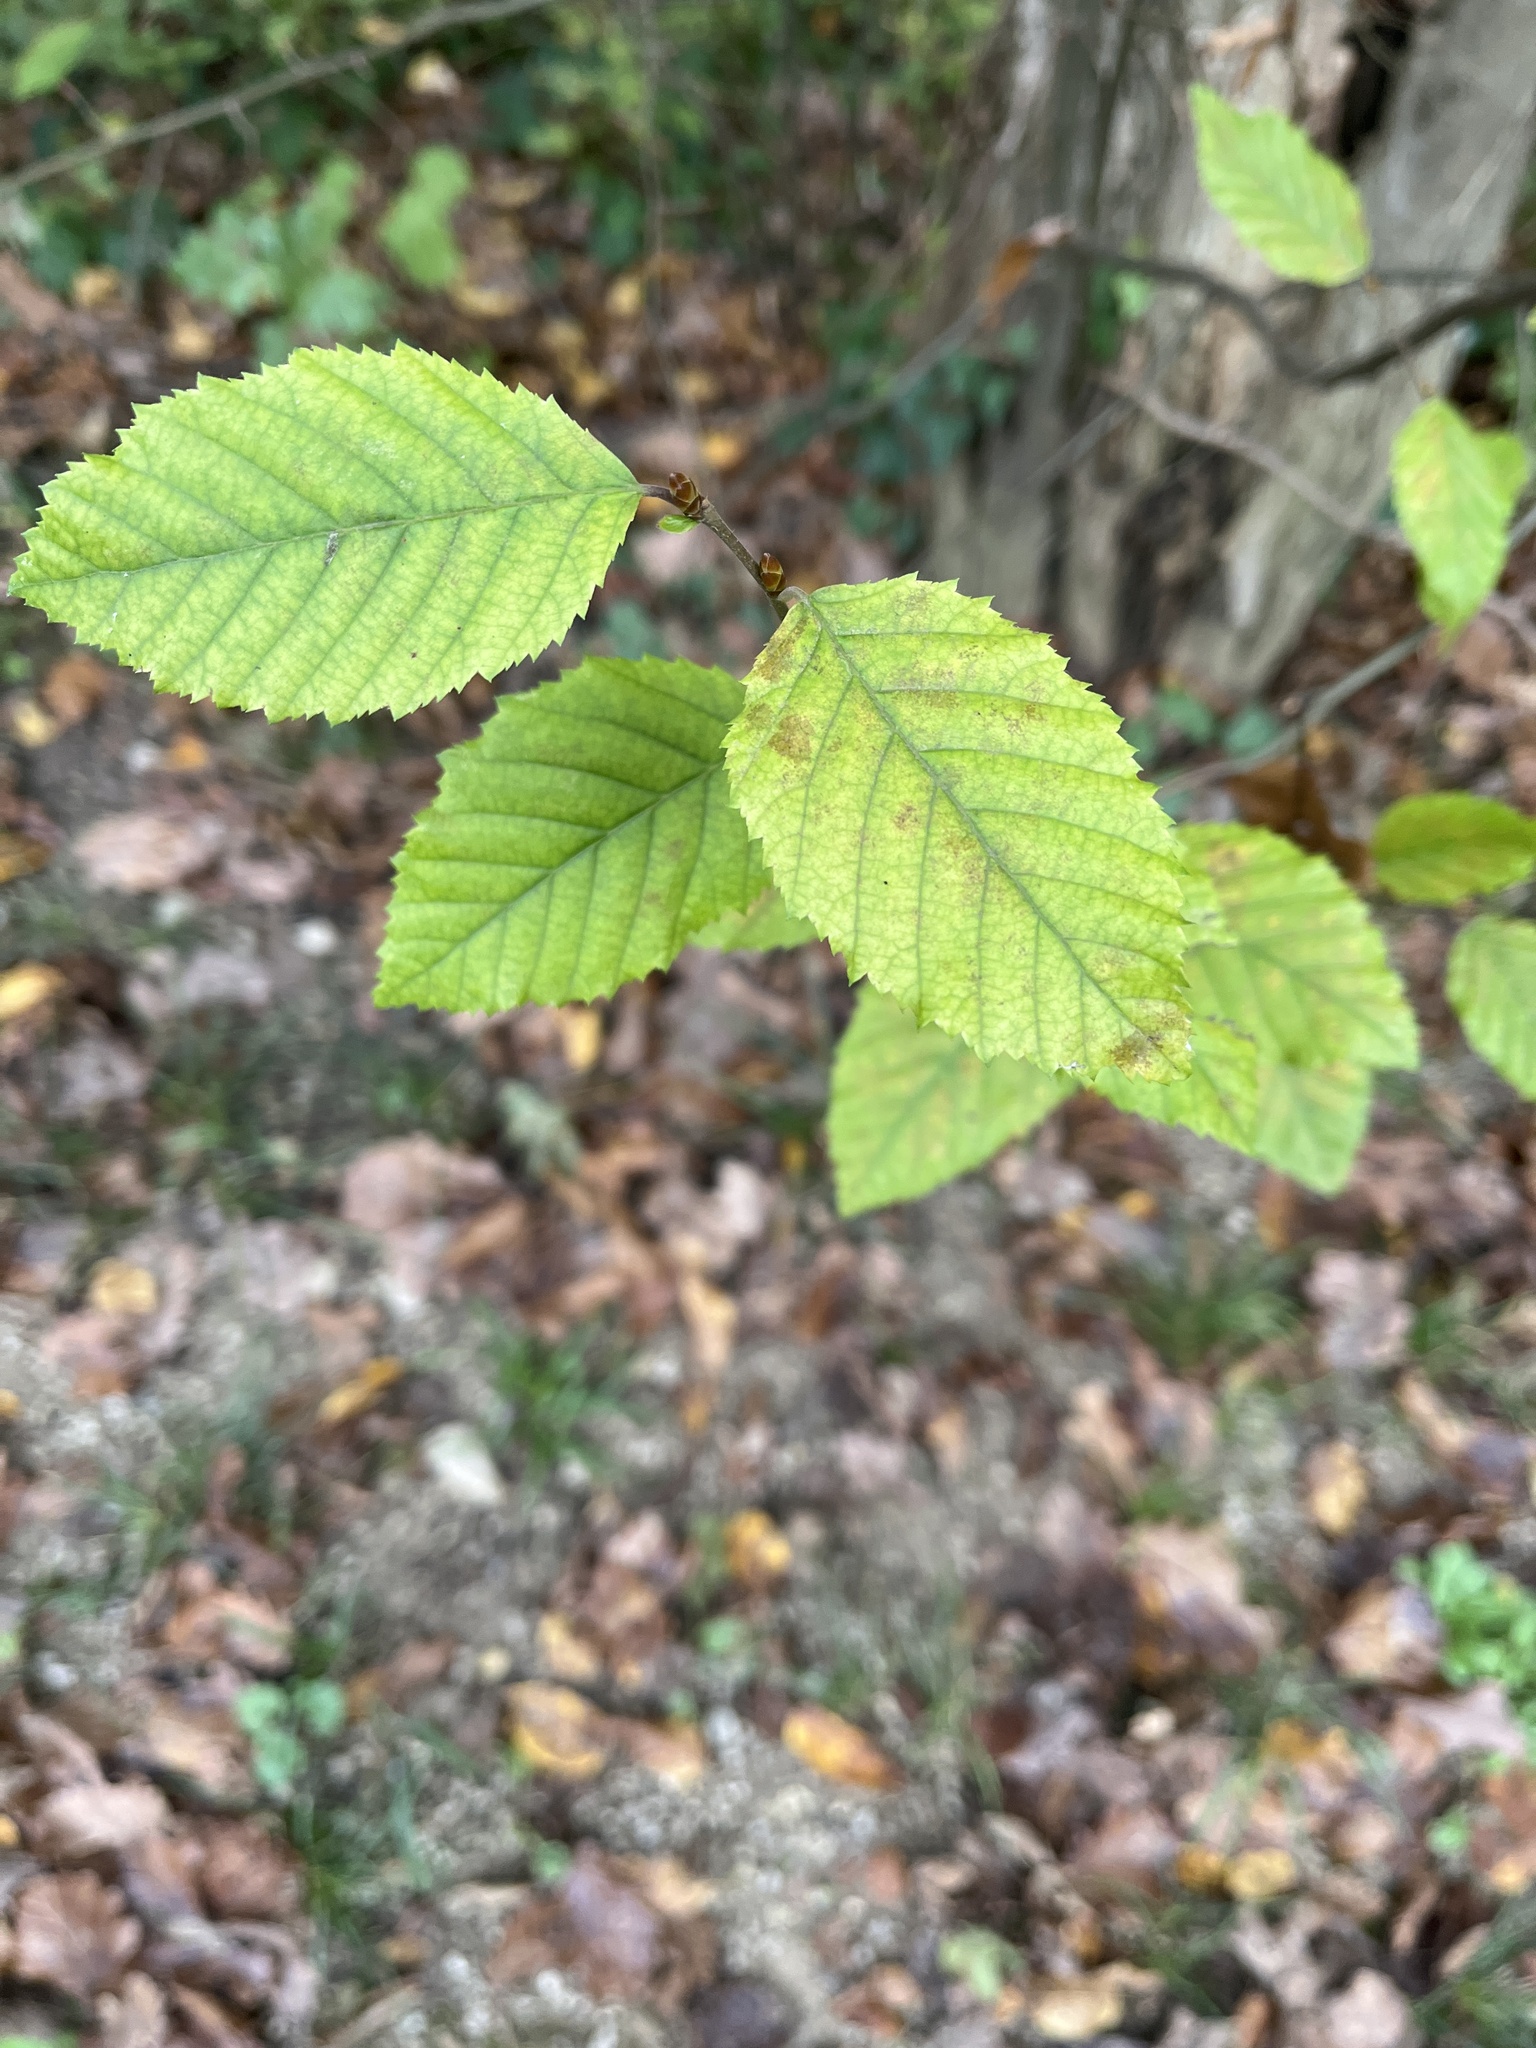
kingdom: Plantae
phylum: Tracheophyta
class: Magnoliopsida
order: Fagales
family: Betulaceae
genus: Carpinus
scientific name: Carpinus betulus
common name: Hornbeam
